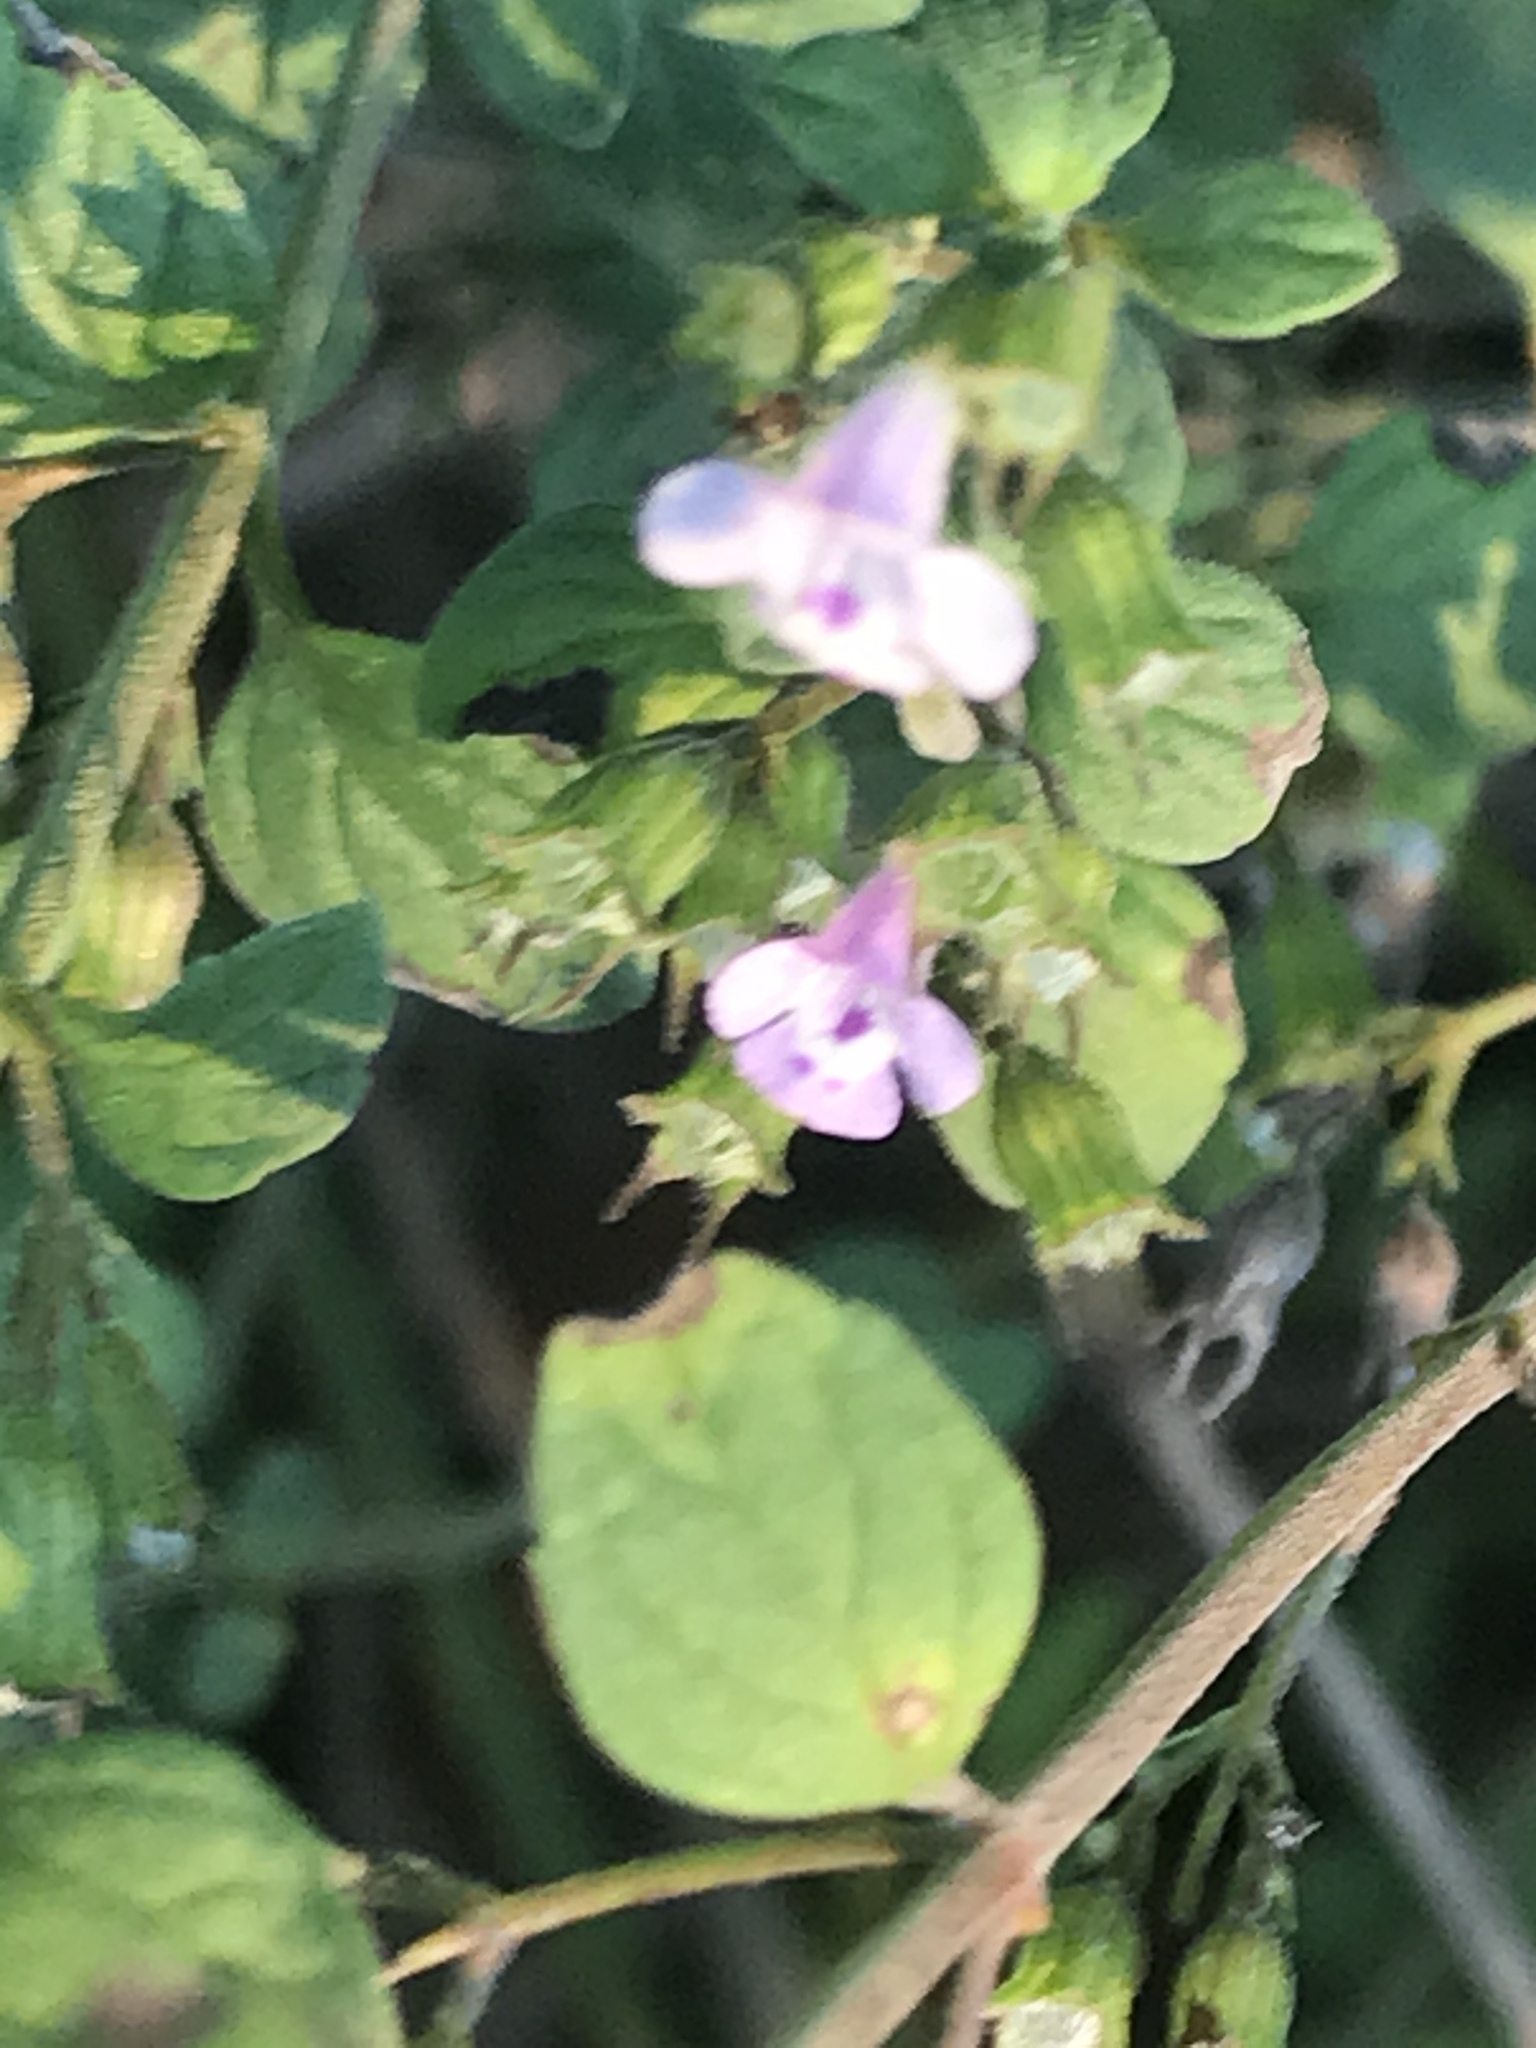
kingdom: Plantae
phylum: Tracheophyta
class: Magnoliopsida
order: Lamiales
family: Lamiaceae
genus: Clinopodium
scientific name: Clinopodium nepeta
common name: Lesser calamint
